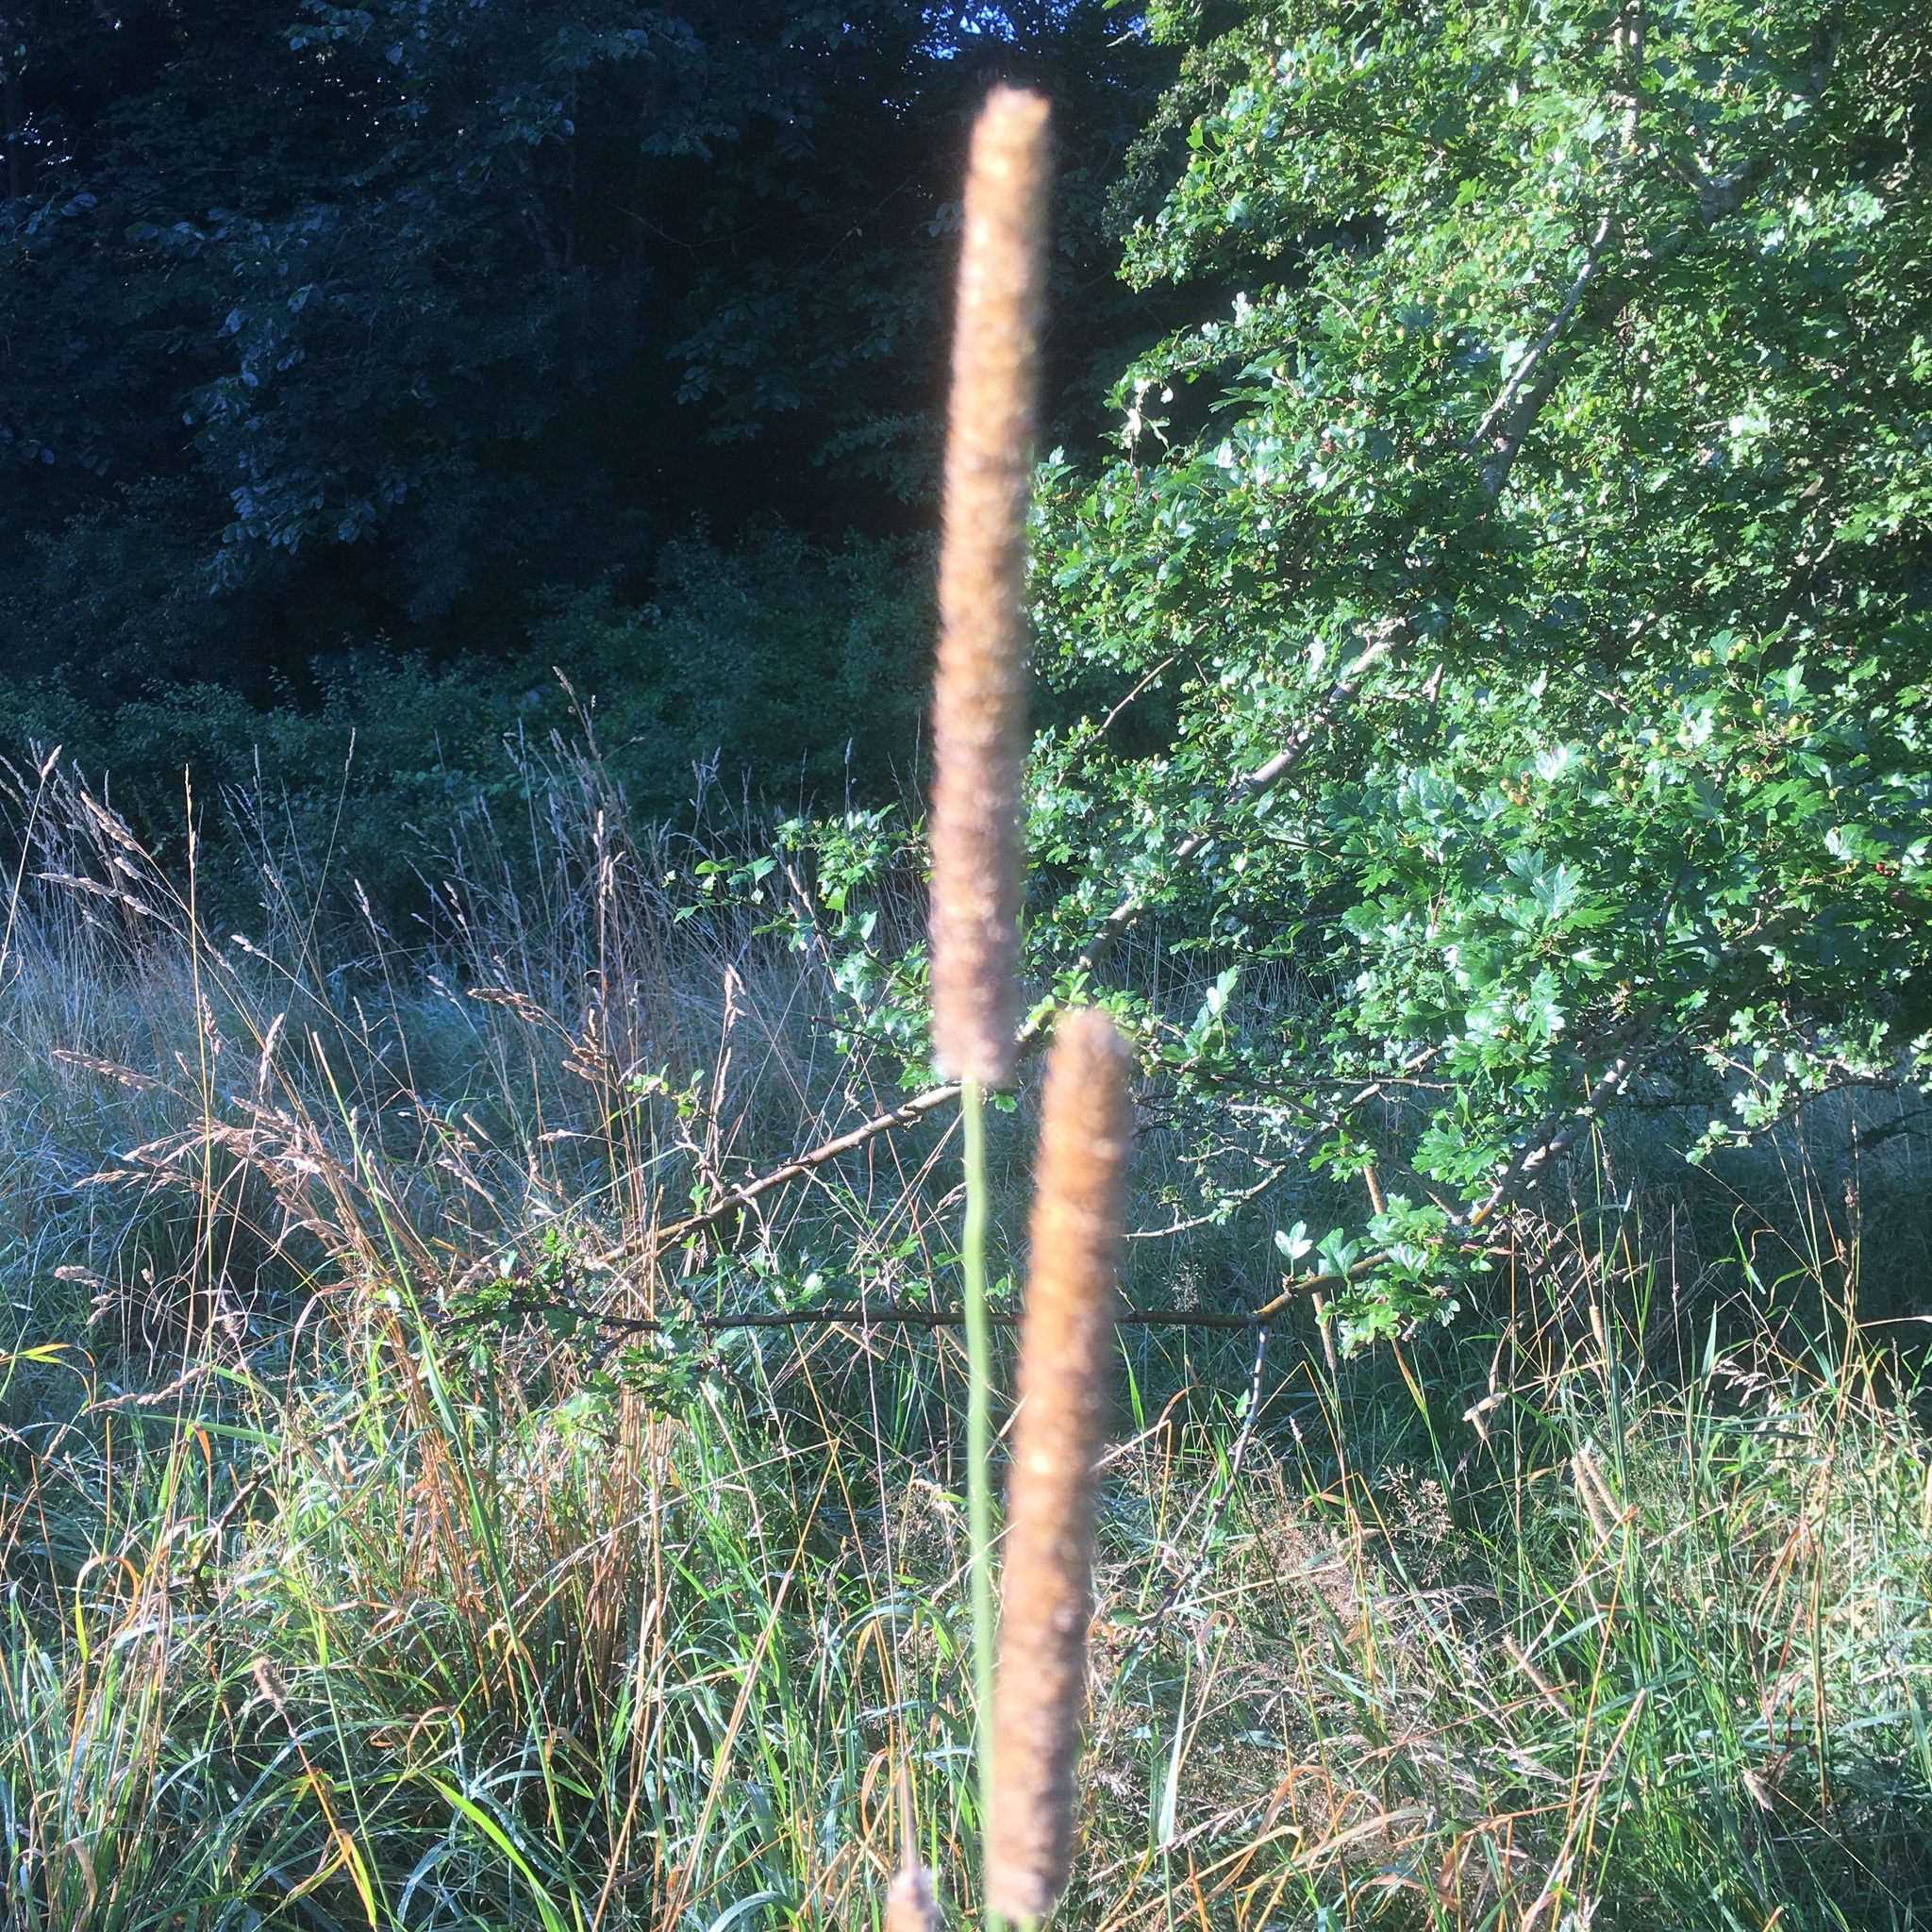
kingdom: Plantae
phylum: Tracheophyta
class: Liliopsida
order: Poales
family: Poaceae
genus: Phleum
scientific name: Phleum pratense
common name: Timothy grass
